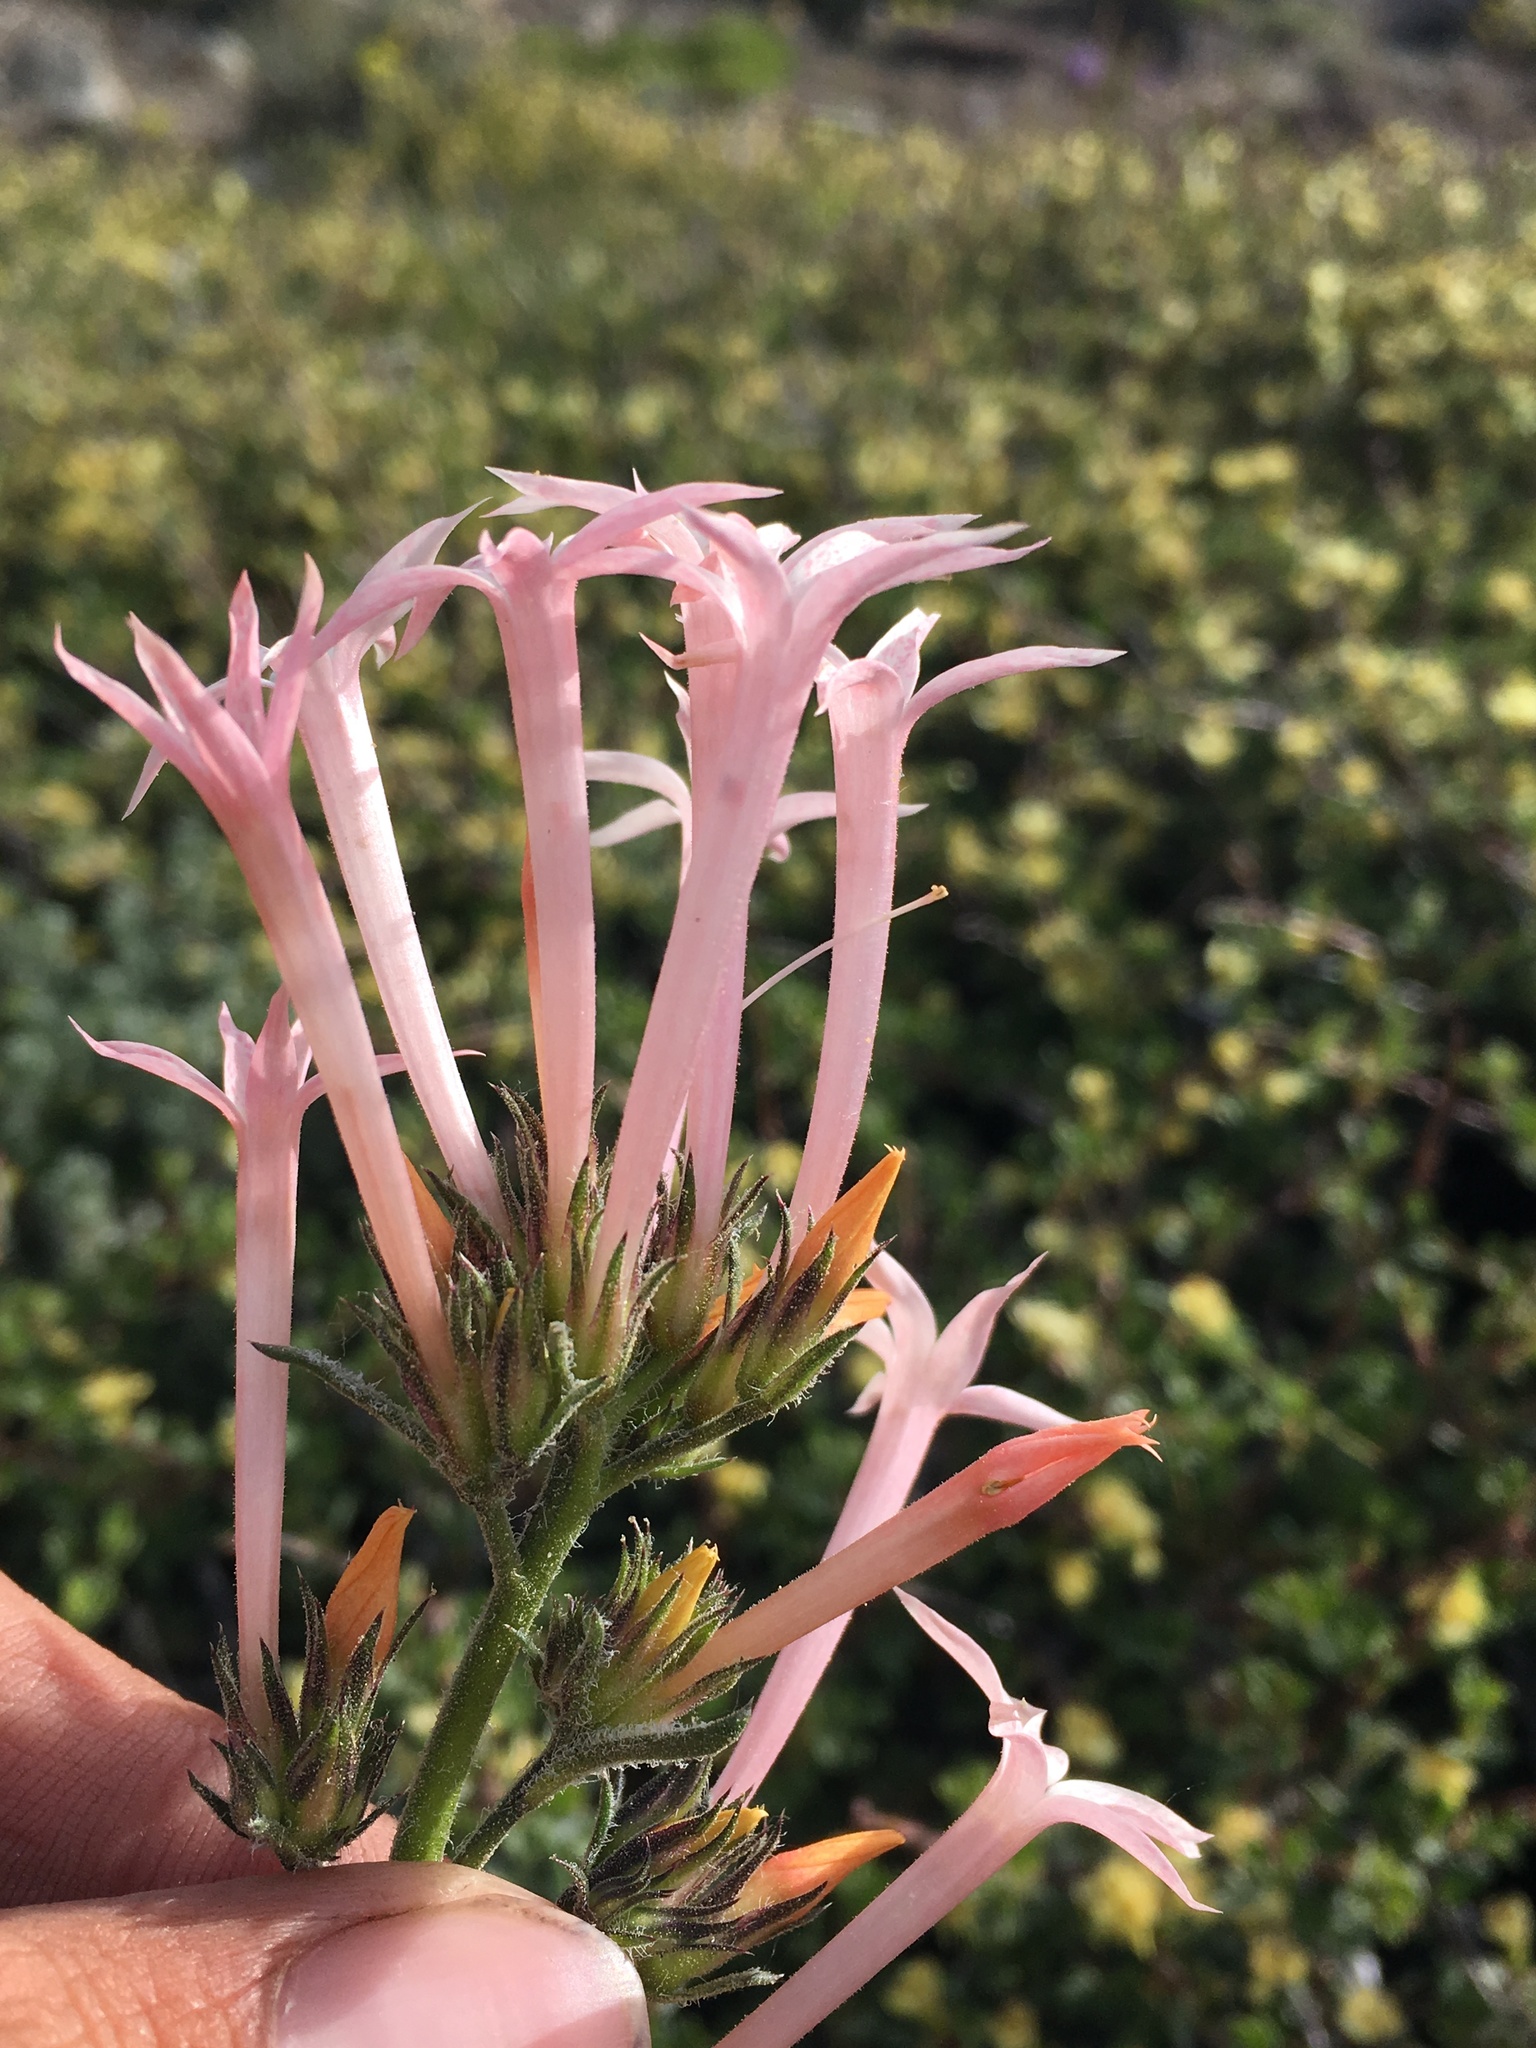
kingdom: Plantae
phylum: Tracheophyta
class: Magnoliopsida
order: Ericales
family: Polemoniaceae
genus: Ipomopsis
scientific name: Ipomopsis tenuituba
